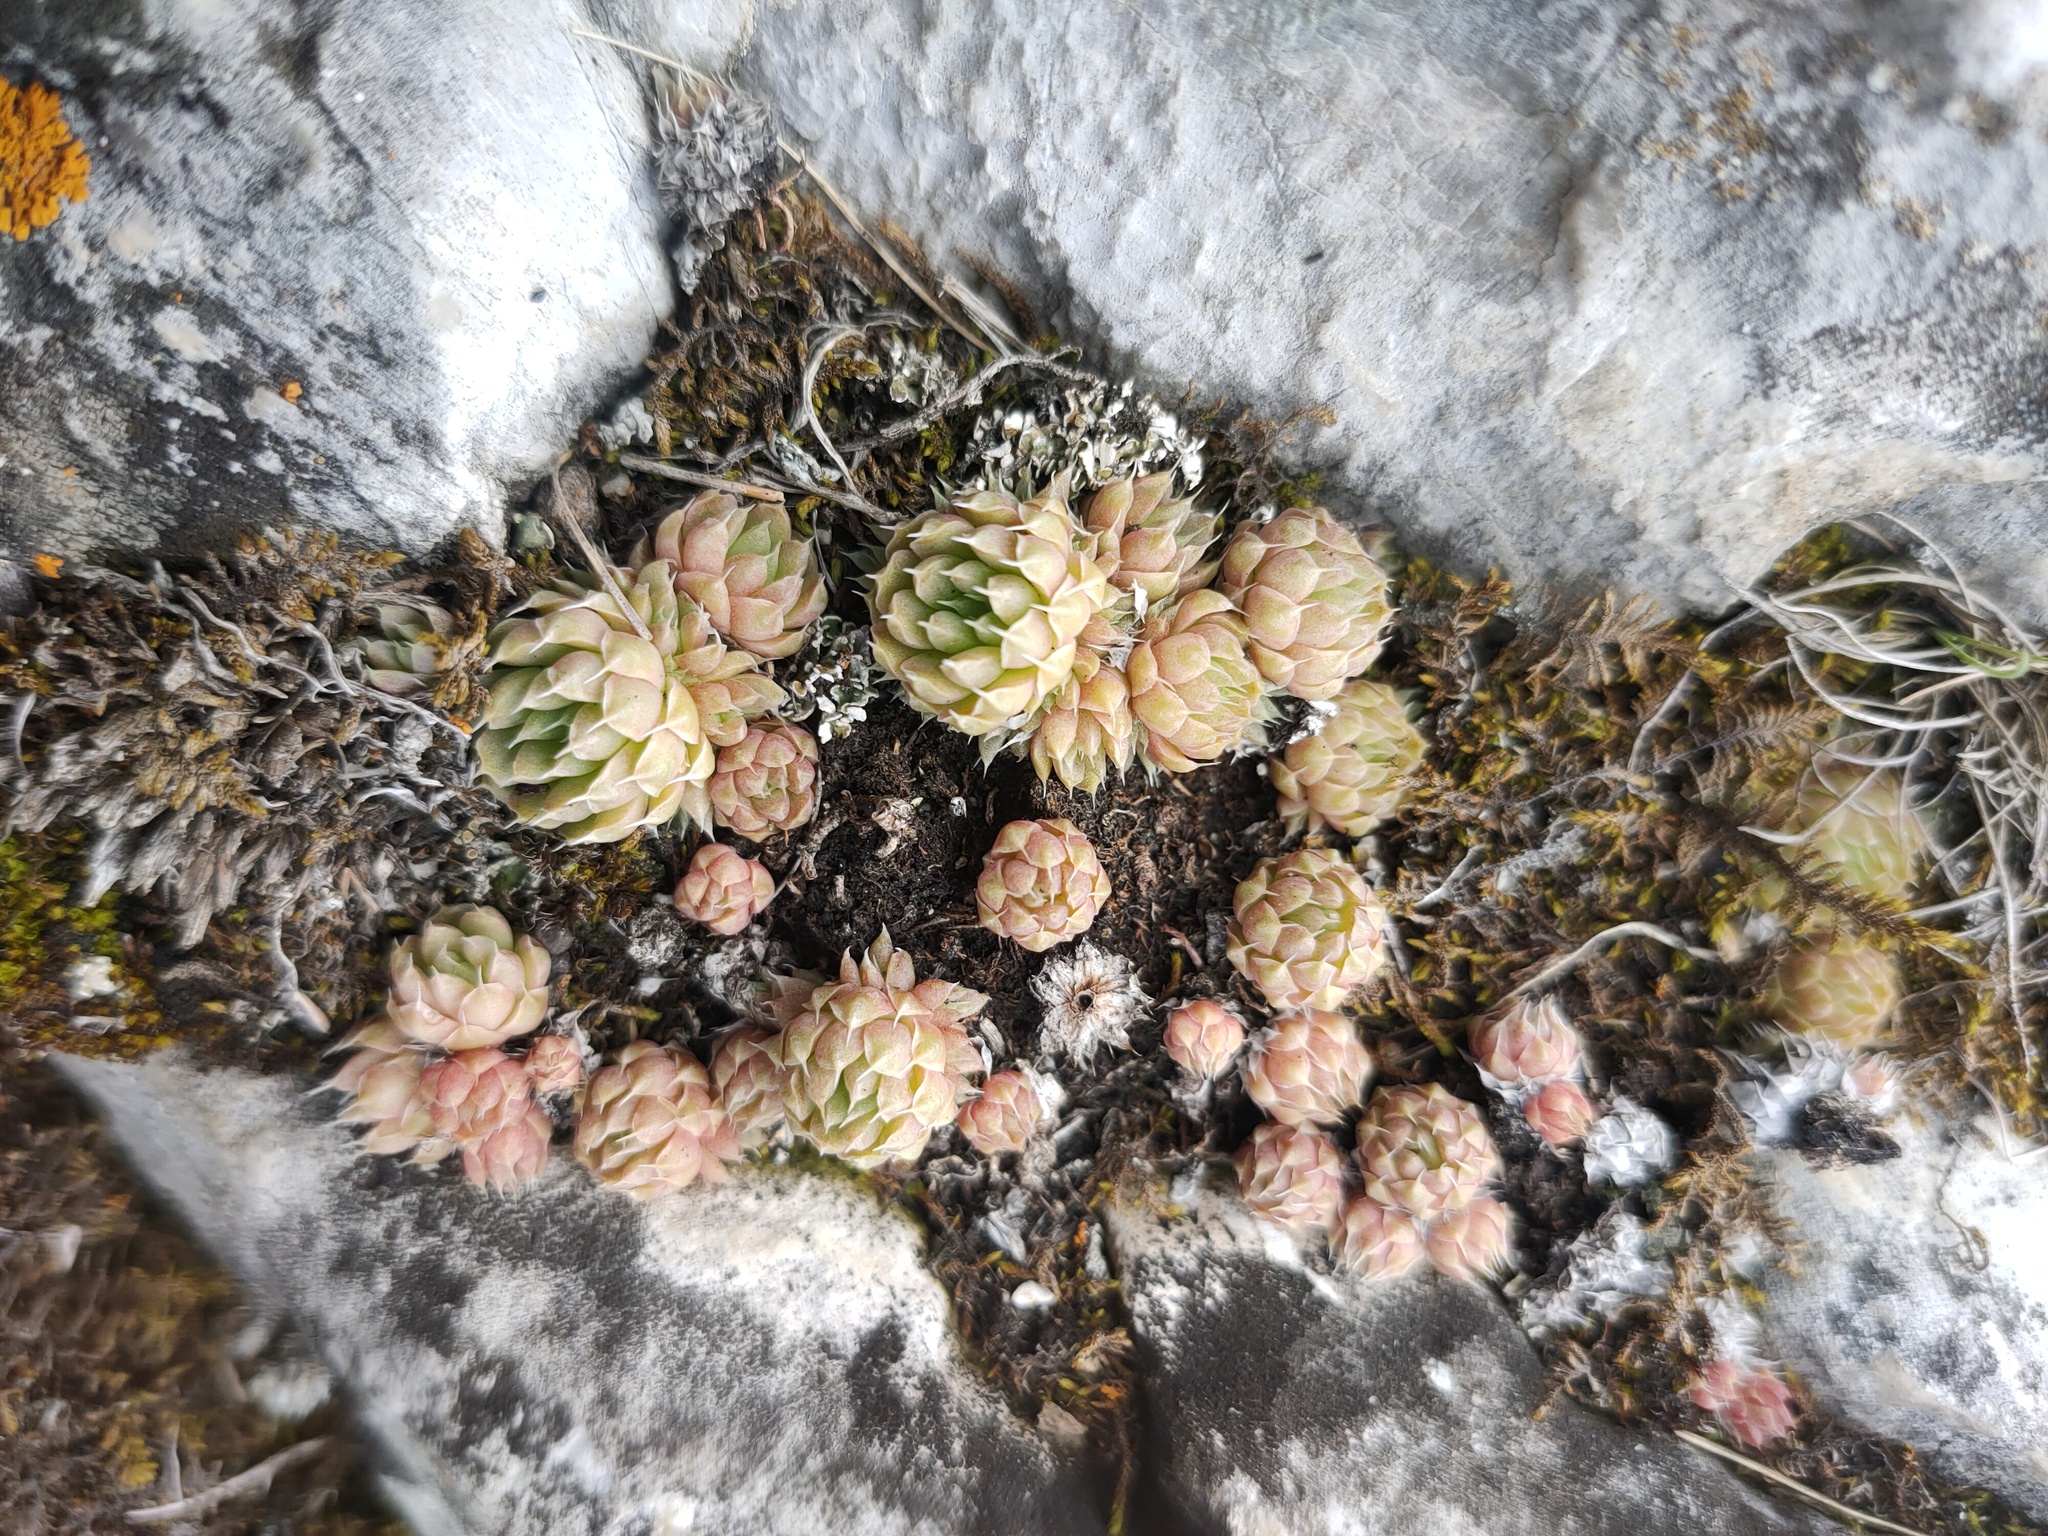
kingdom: Plantae
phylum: Tracheophyta
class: Magnoliopsida
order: Saxifragales
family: Crassulaceae
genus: Orostachys
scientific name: Orostachys spinosa
